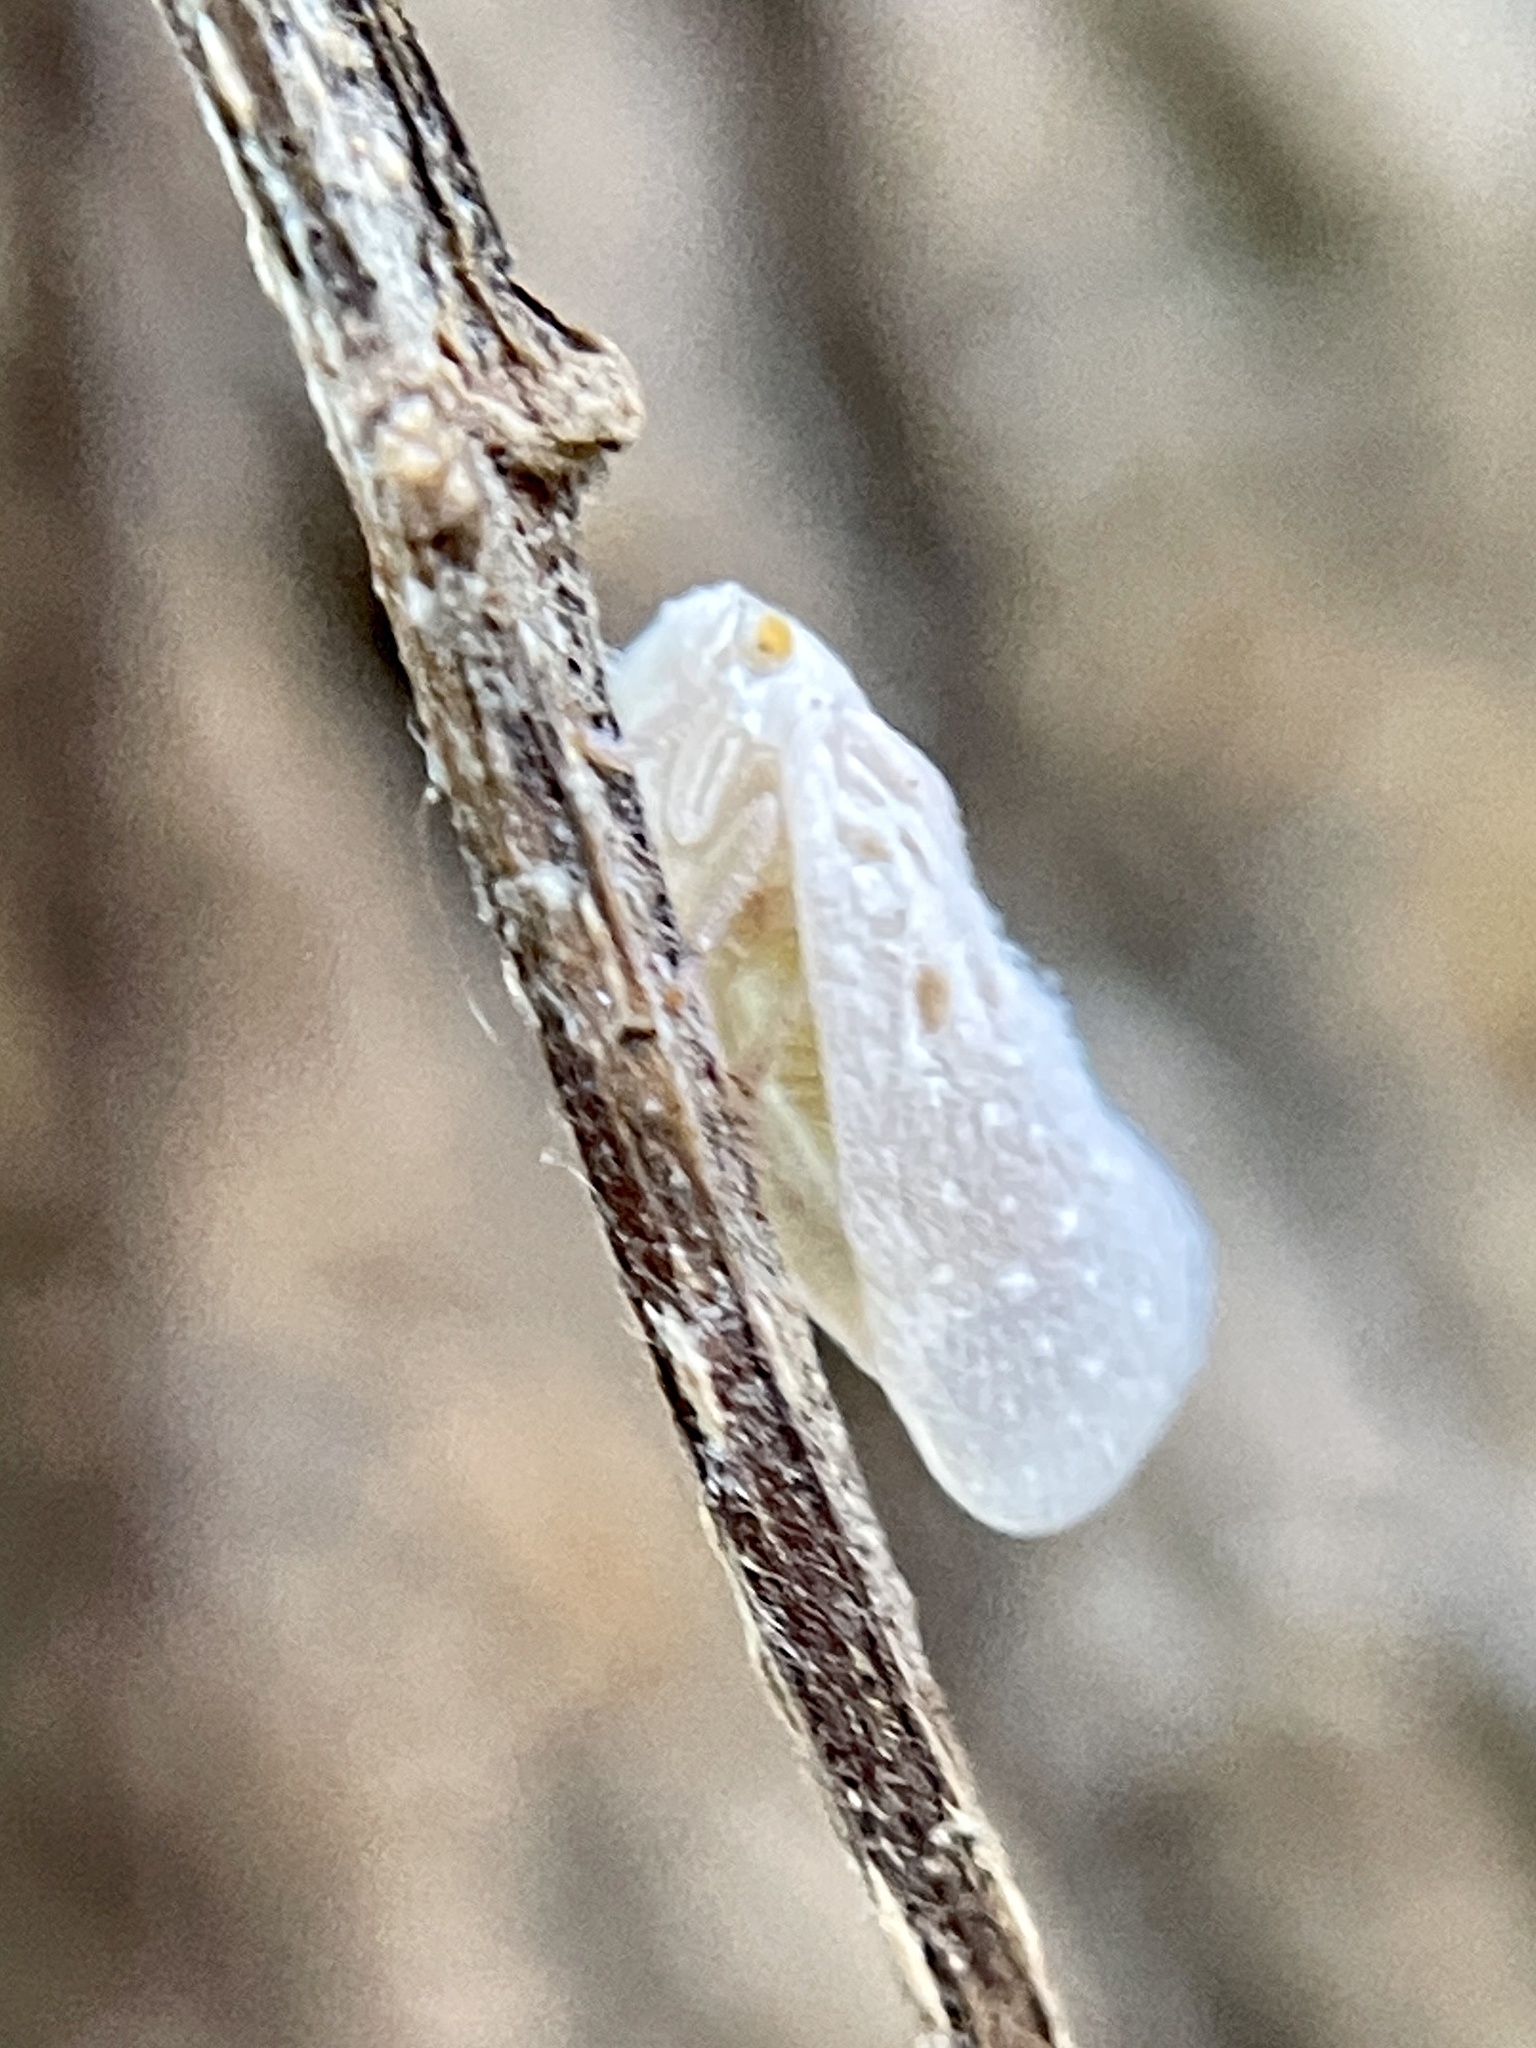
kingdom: Animalia
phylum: Arthropoda
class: Insecta
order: Hemiptera
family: Flatidae
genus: Metcalfa
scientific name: Metcalfa pruinosa
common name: Citrus flatid planthopper
